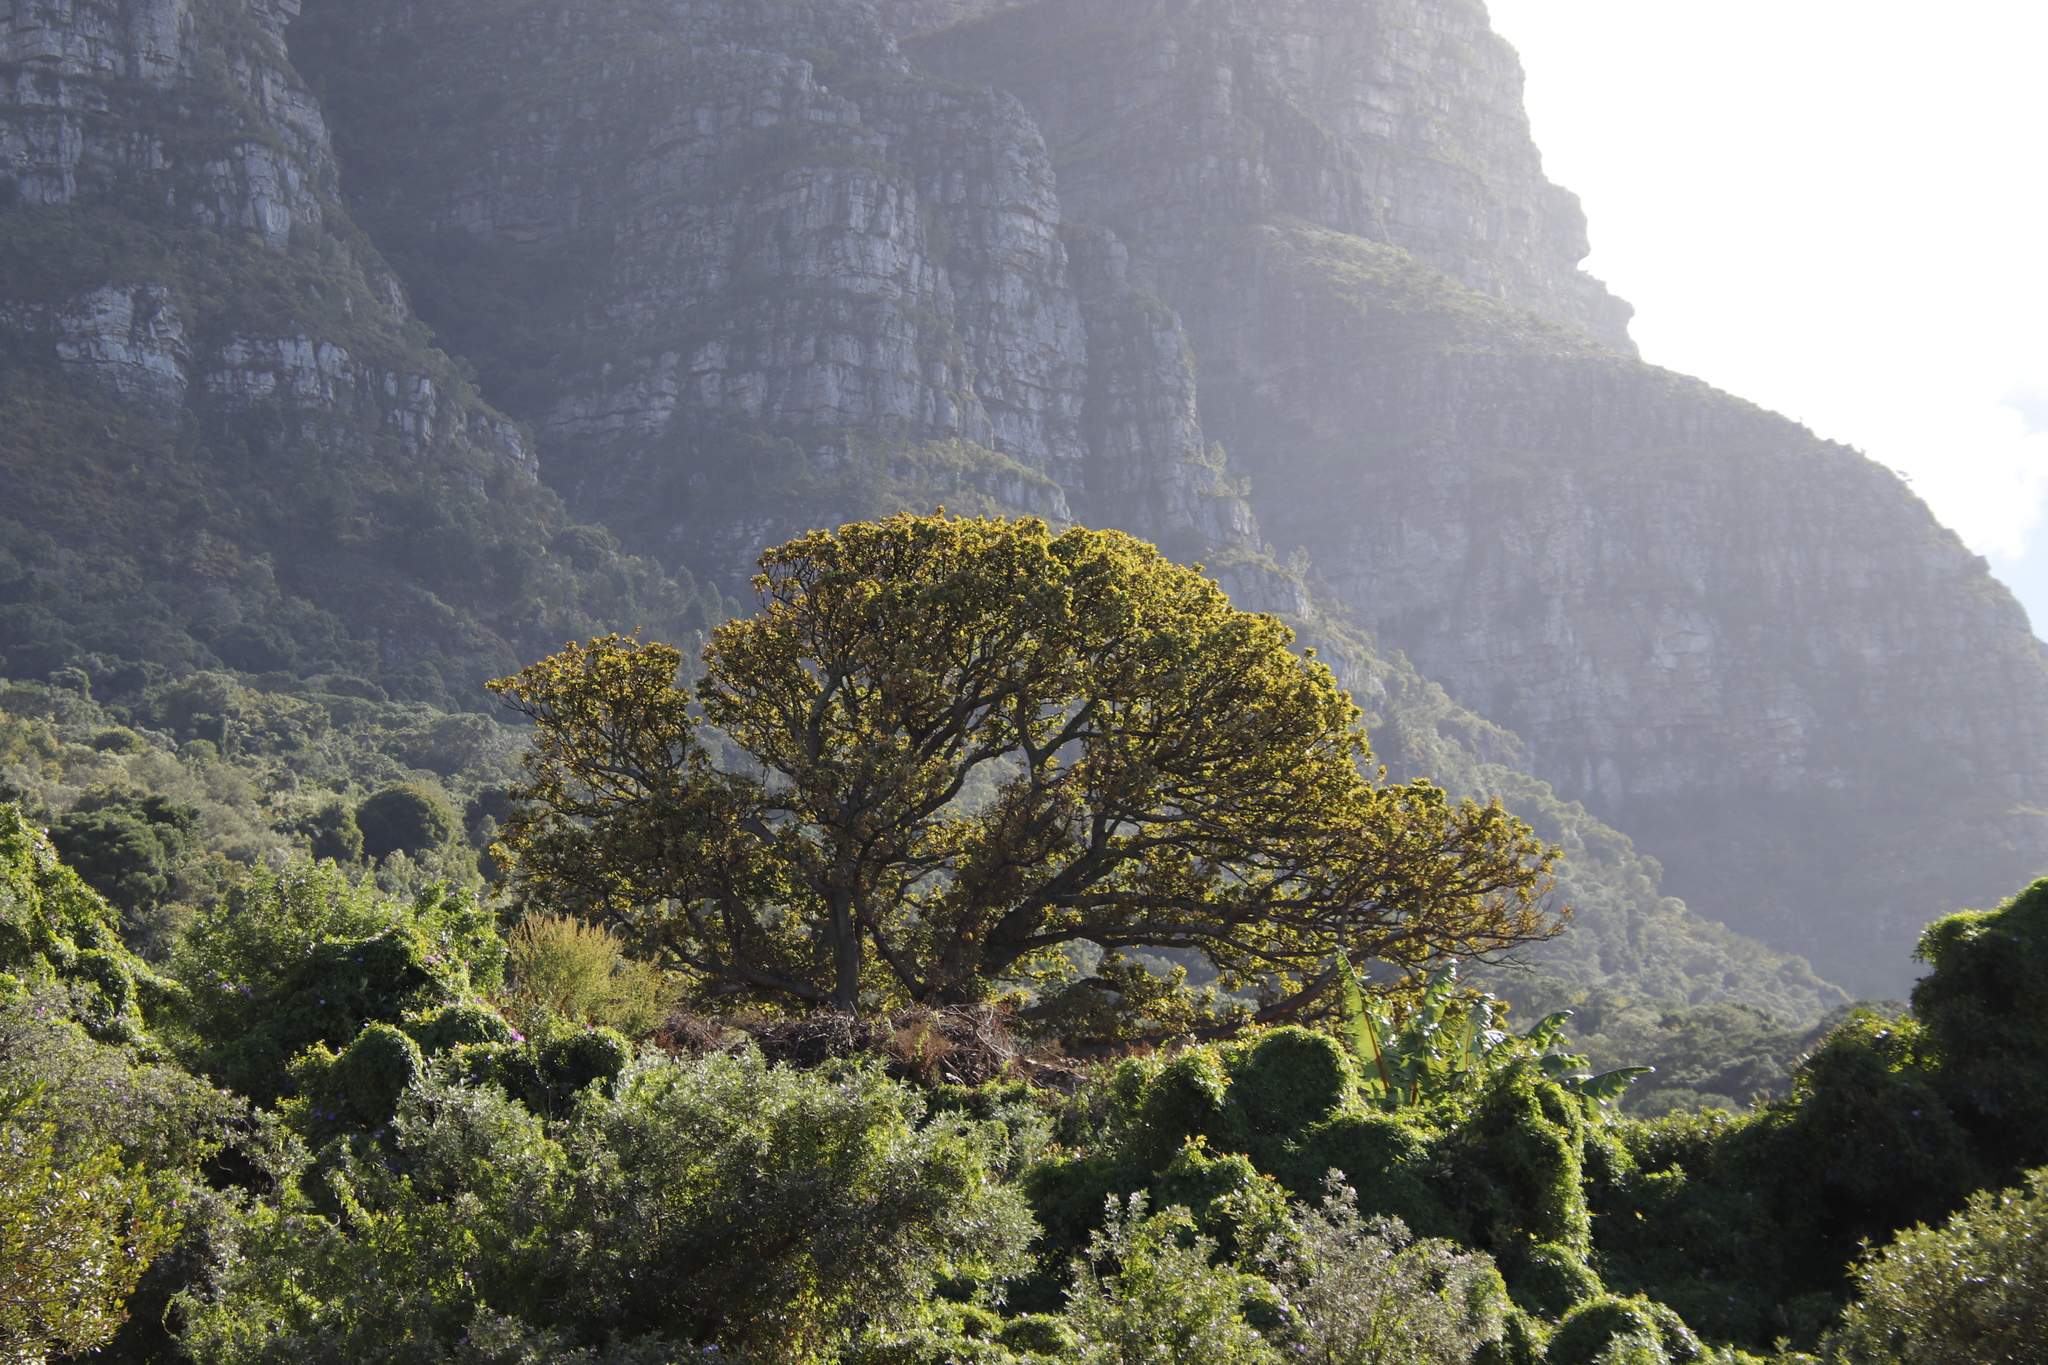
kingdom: Plantae
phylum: Tracheophyta
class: Magnoliopsida
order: Fagales
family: Fagaceae
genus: Quercus
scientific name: Quercus robur
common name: Pedunculate oak
